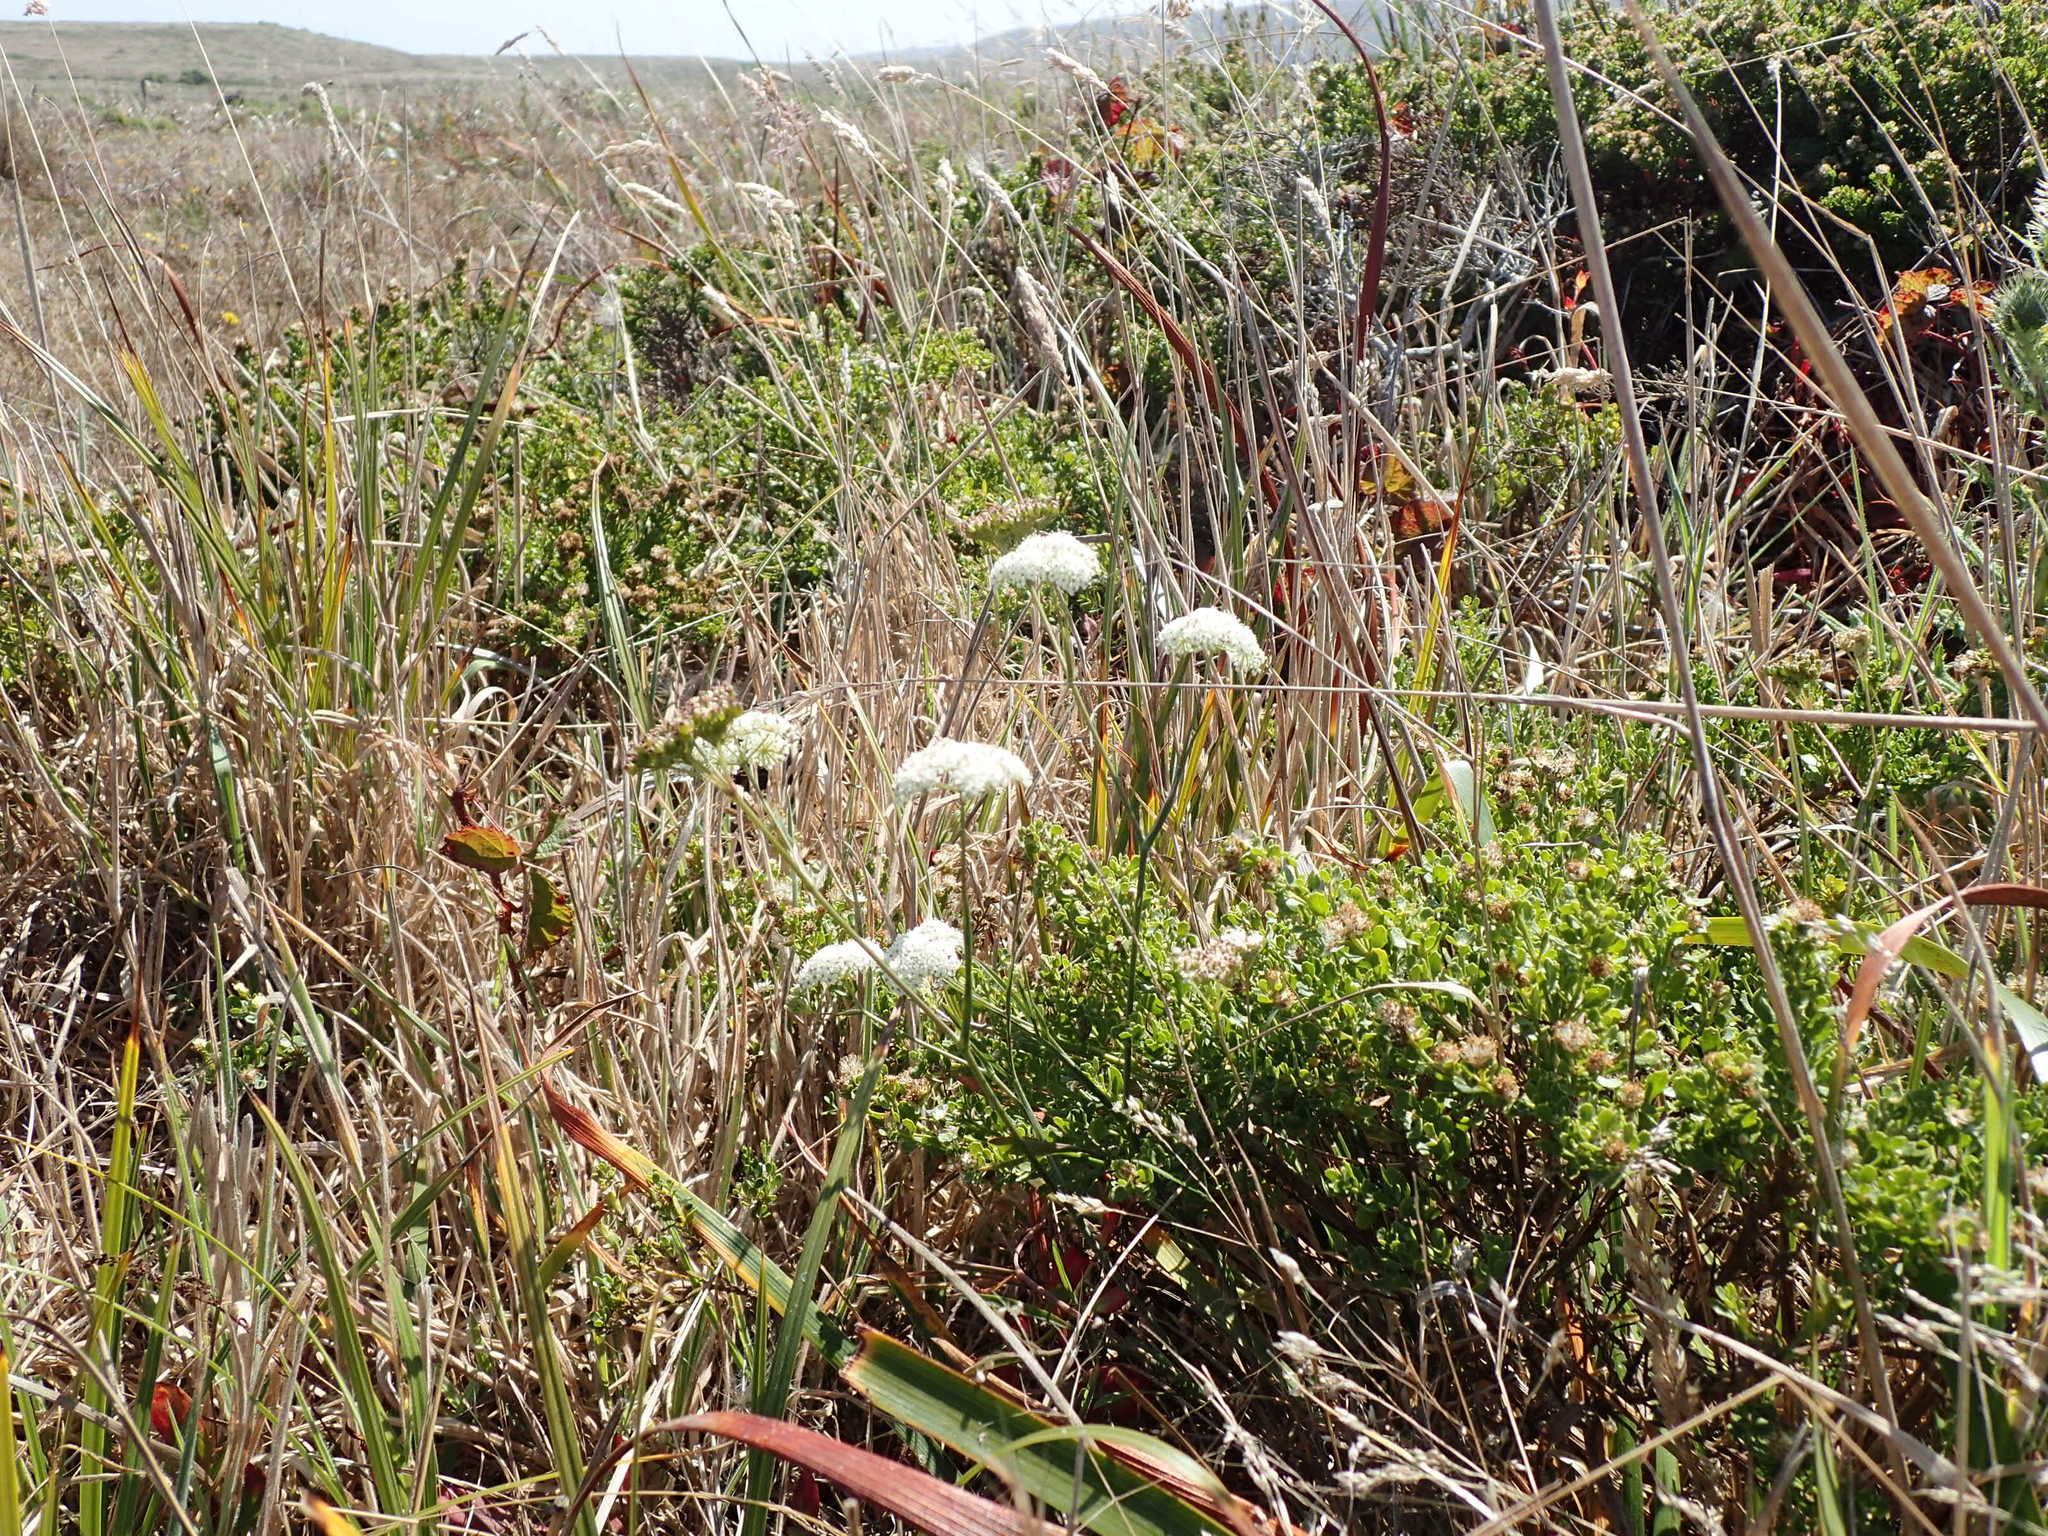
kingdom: Plantae
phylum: Tracheophyta
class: Magnoliopsida
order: Apiales
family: Apiaceae
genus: Perideridia
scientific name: Perideridia gairdneri
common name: False caraway
